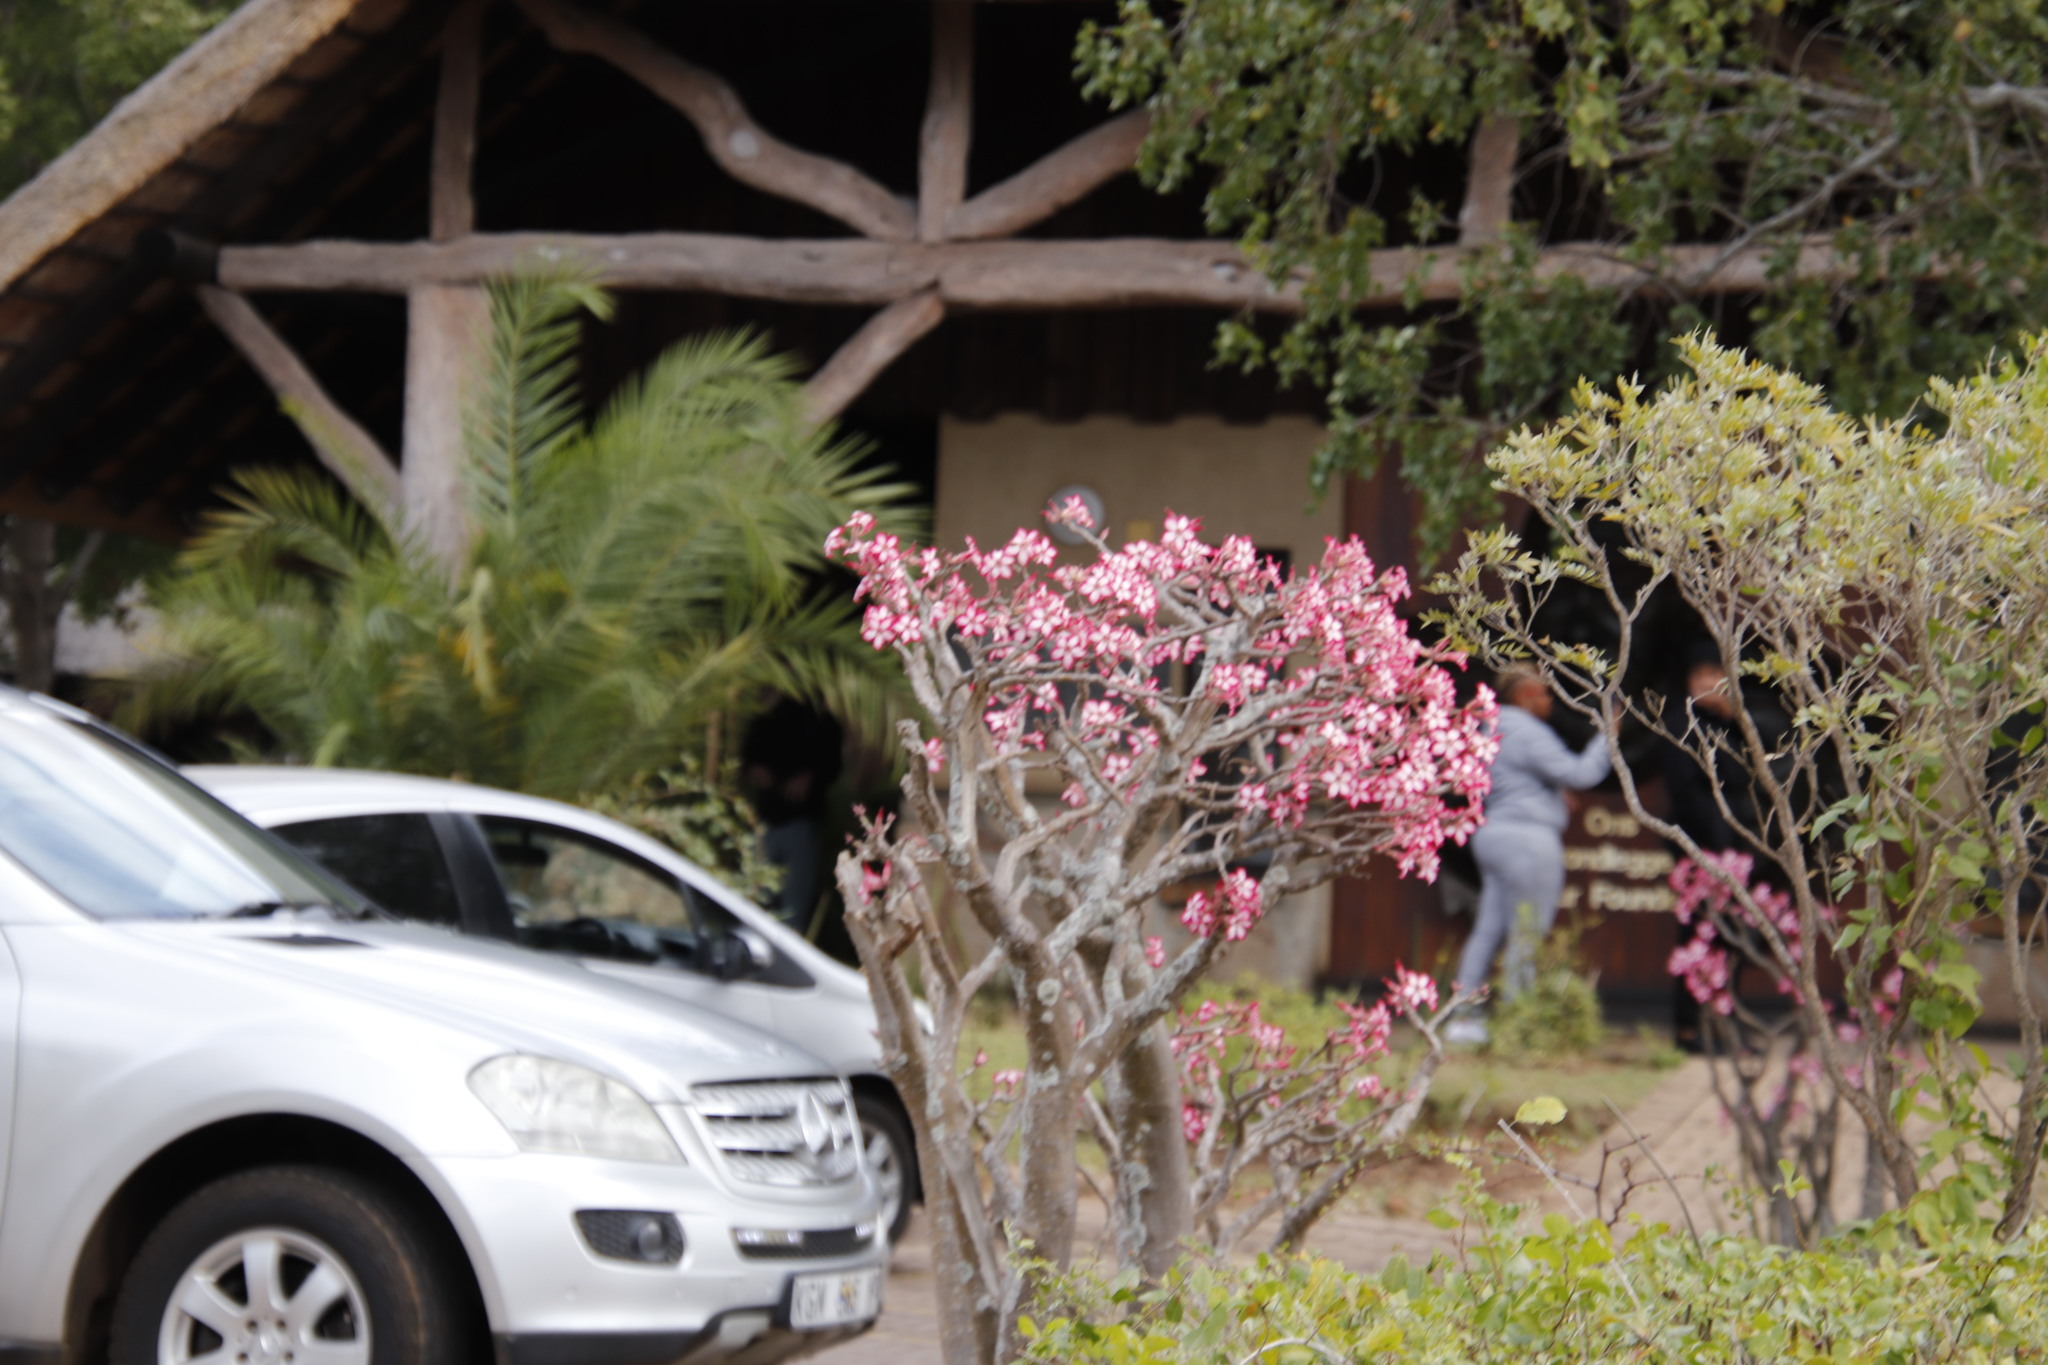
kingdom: Plantae
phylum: Tracheophyta
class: Magnoliopsida
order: Gentianales
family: Apocynaceae
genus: Adenium
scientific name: Adenium obesum
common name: Desert-rose
